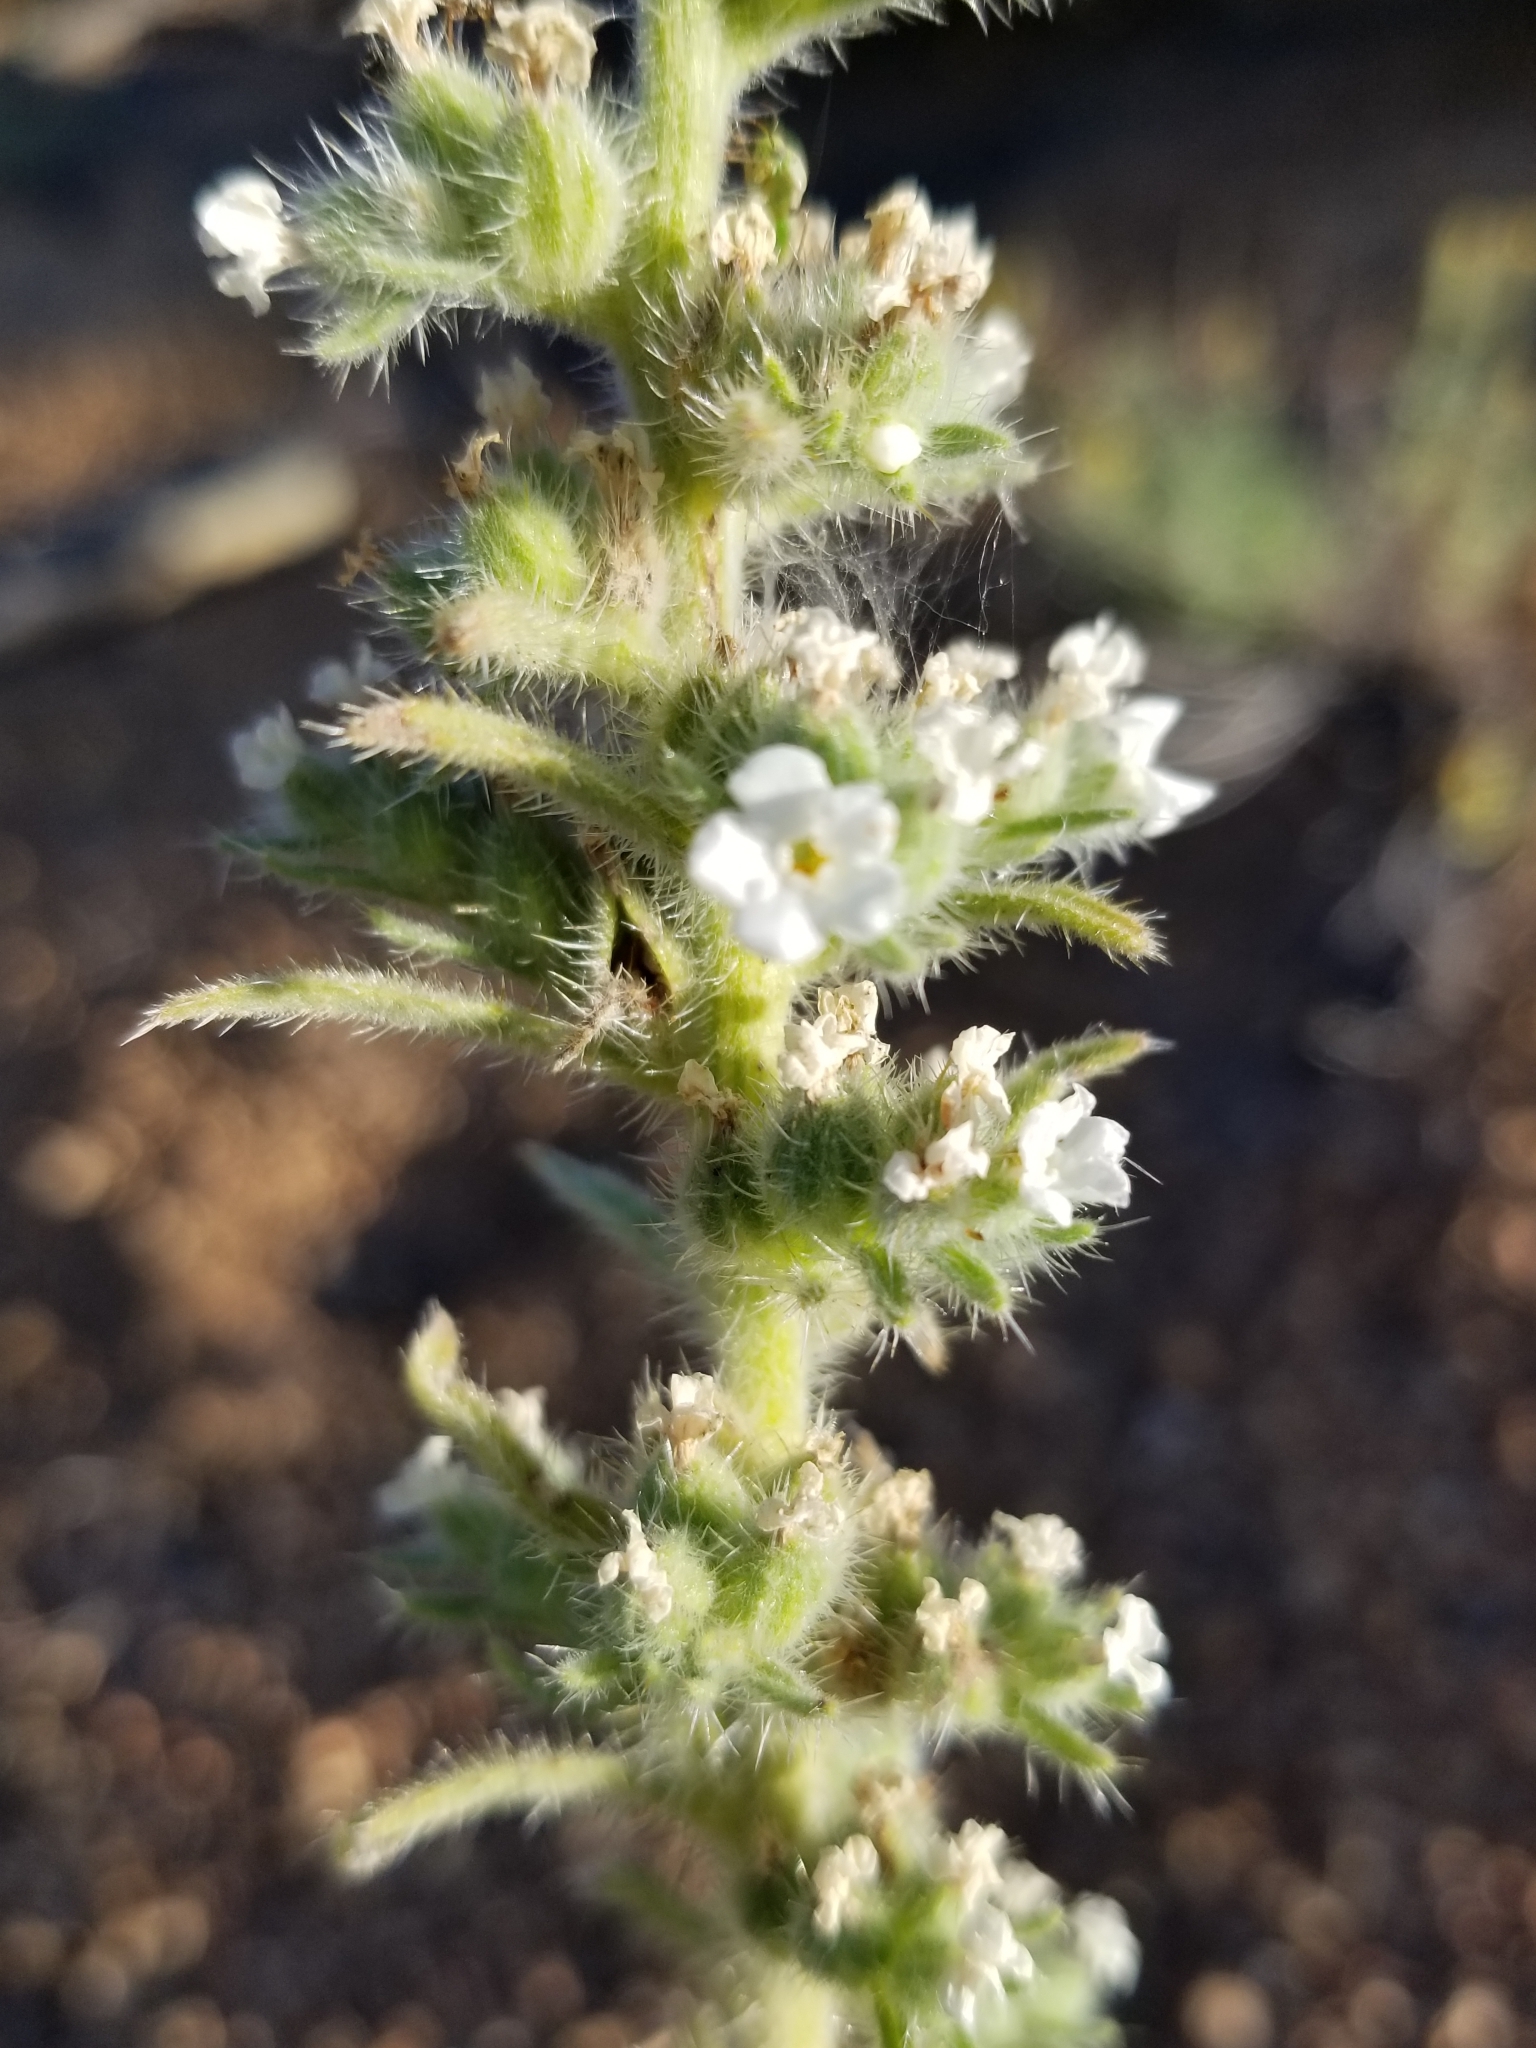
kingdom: Plantae
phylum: Tracheophyta
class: Magnoliopsida
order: Boraginales
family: Boraginaceae
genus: Oreocarya
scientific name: Oreocarya virgata
